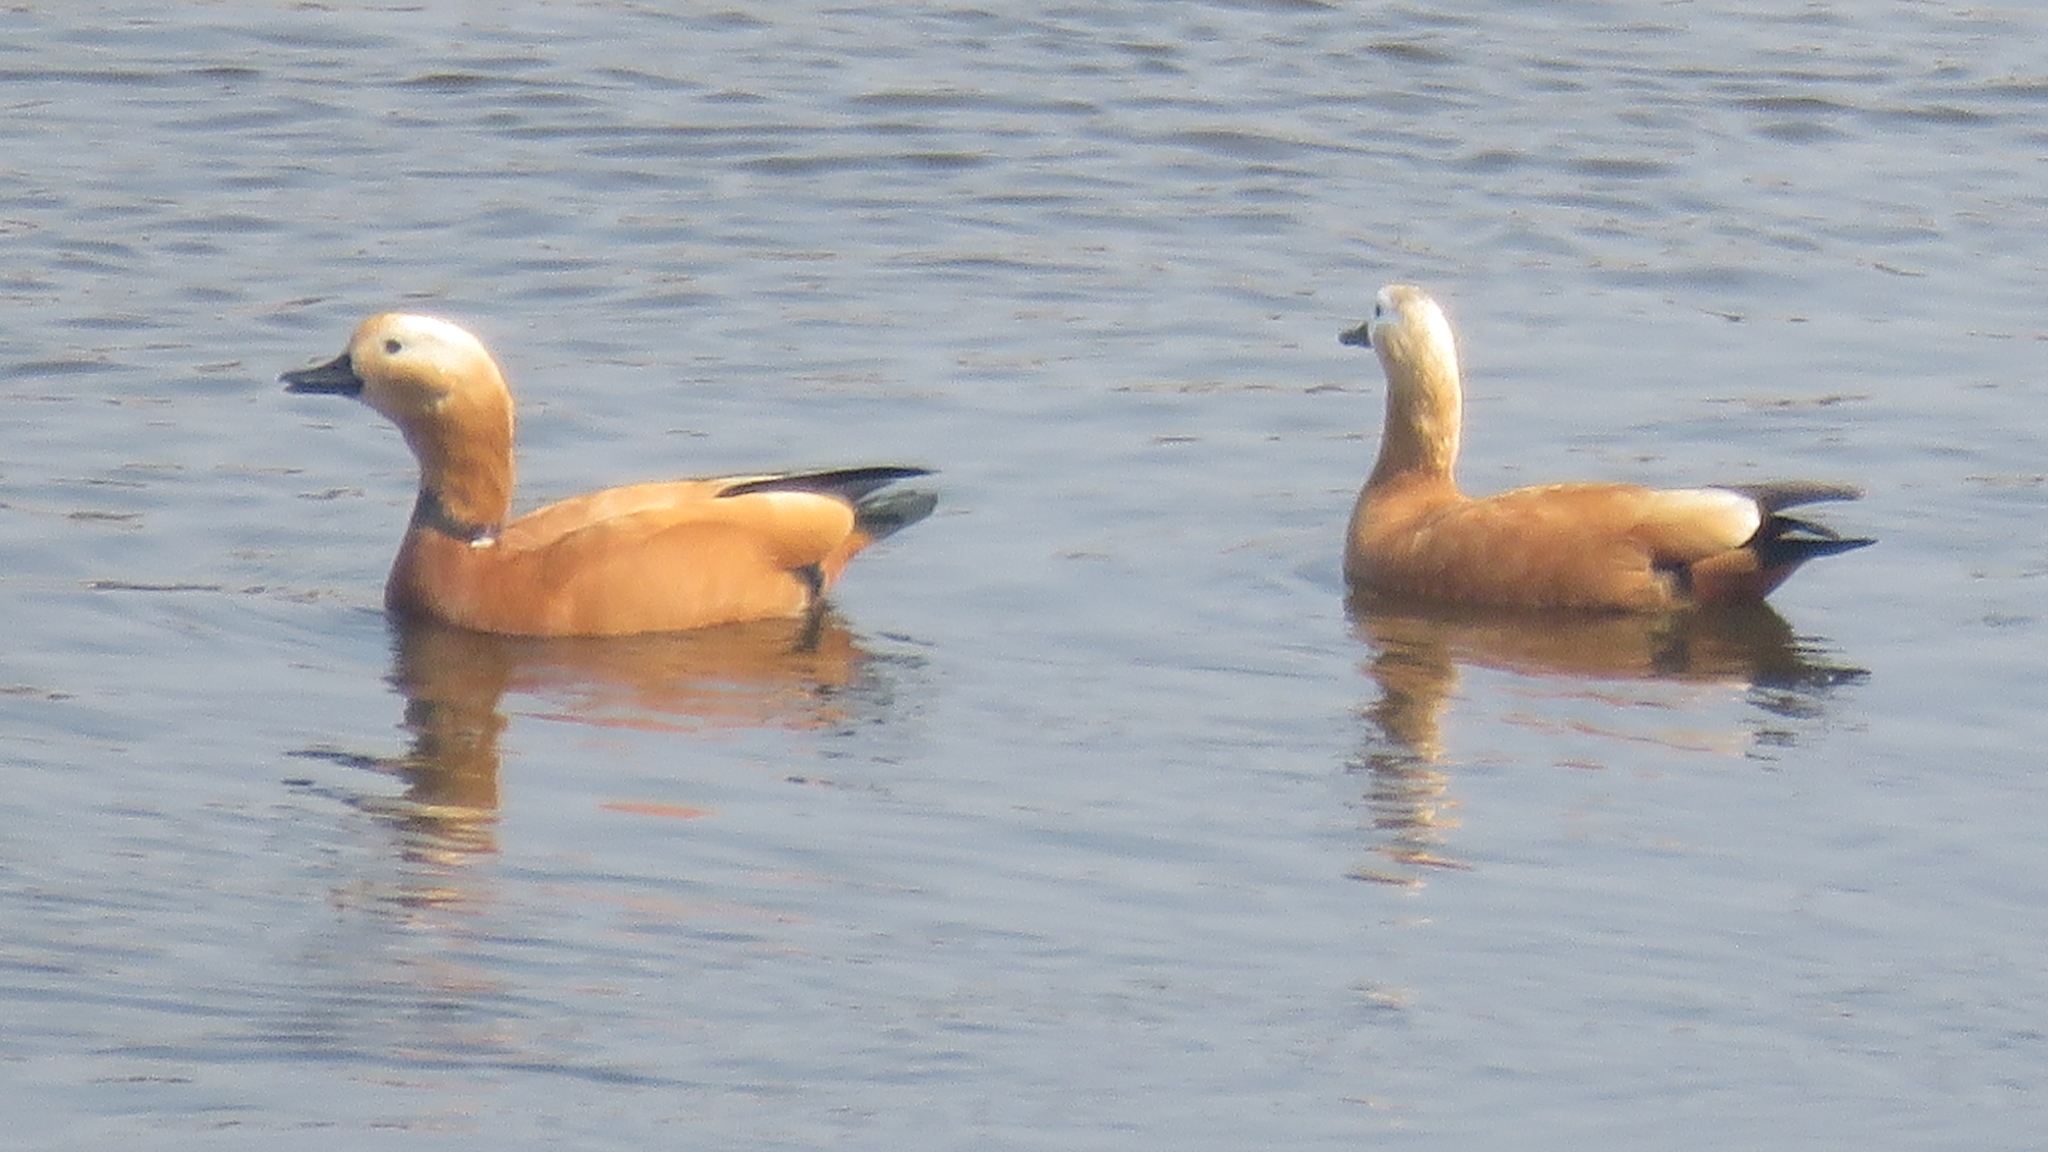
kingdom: Animalia
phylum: Chordata
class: Aves
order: Anseriformes
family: Anatidae
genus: Tadorna
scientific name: Tadorna ferruginea
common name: Ruddy shelduck
